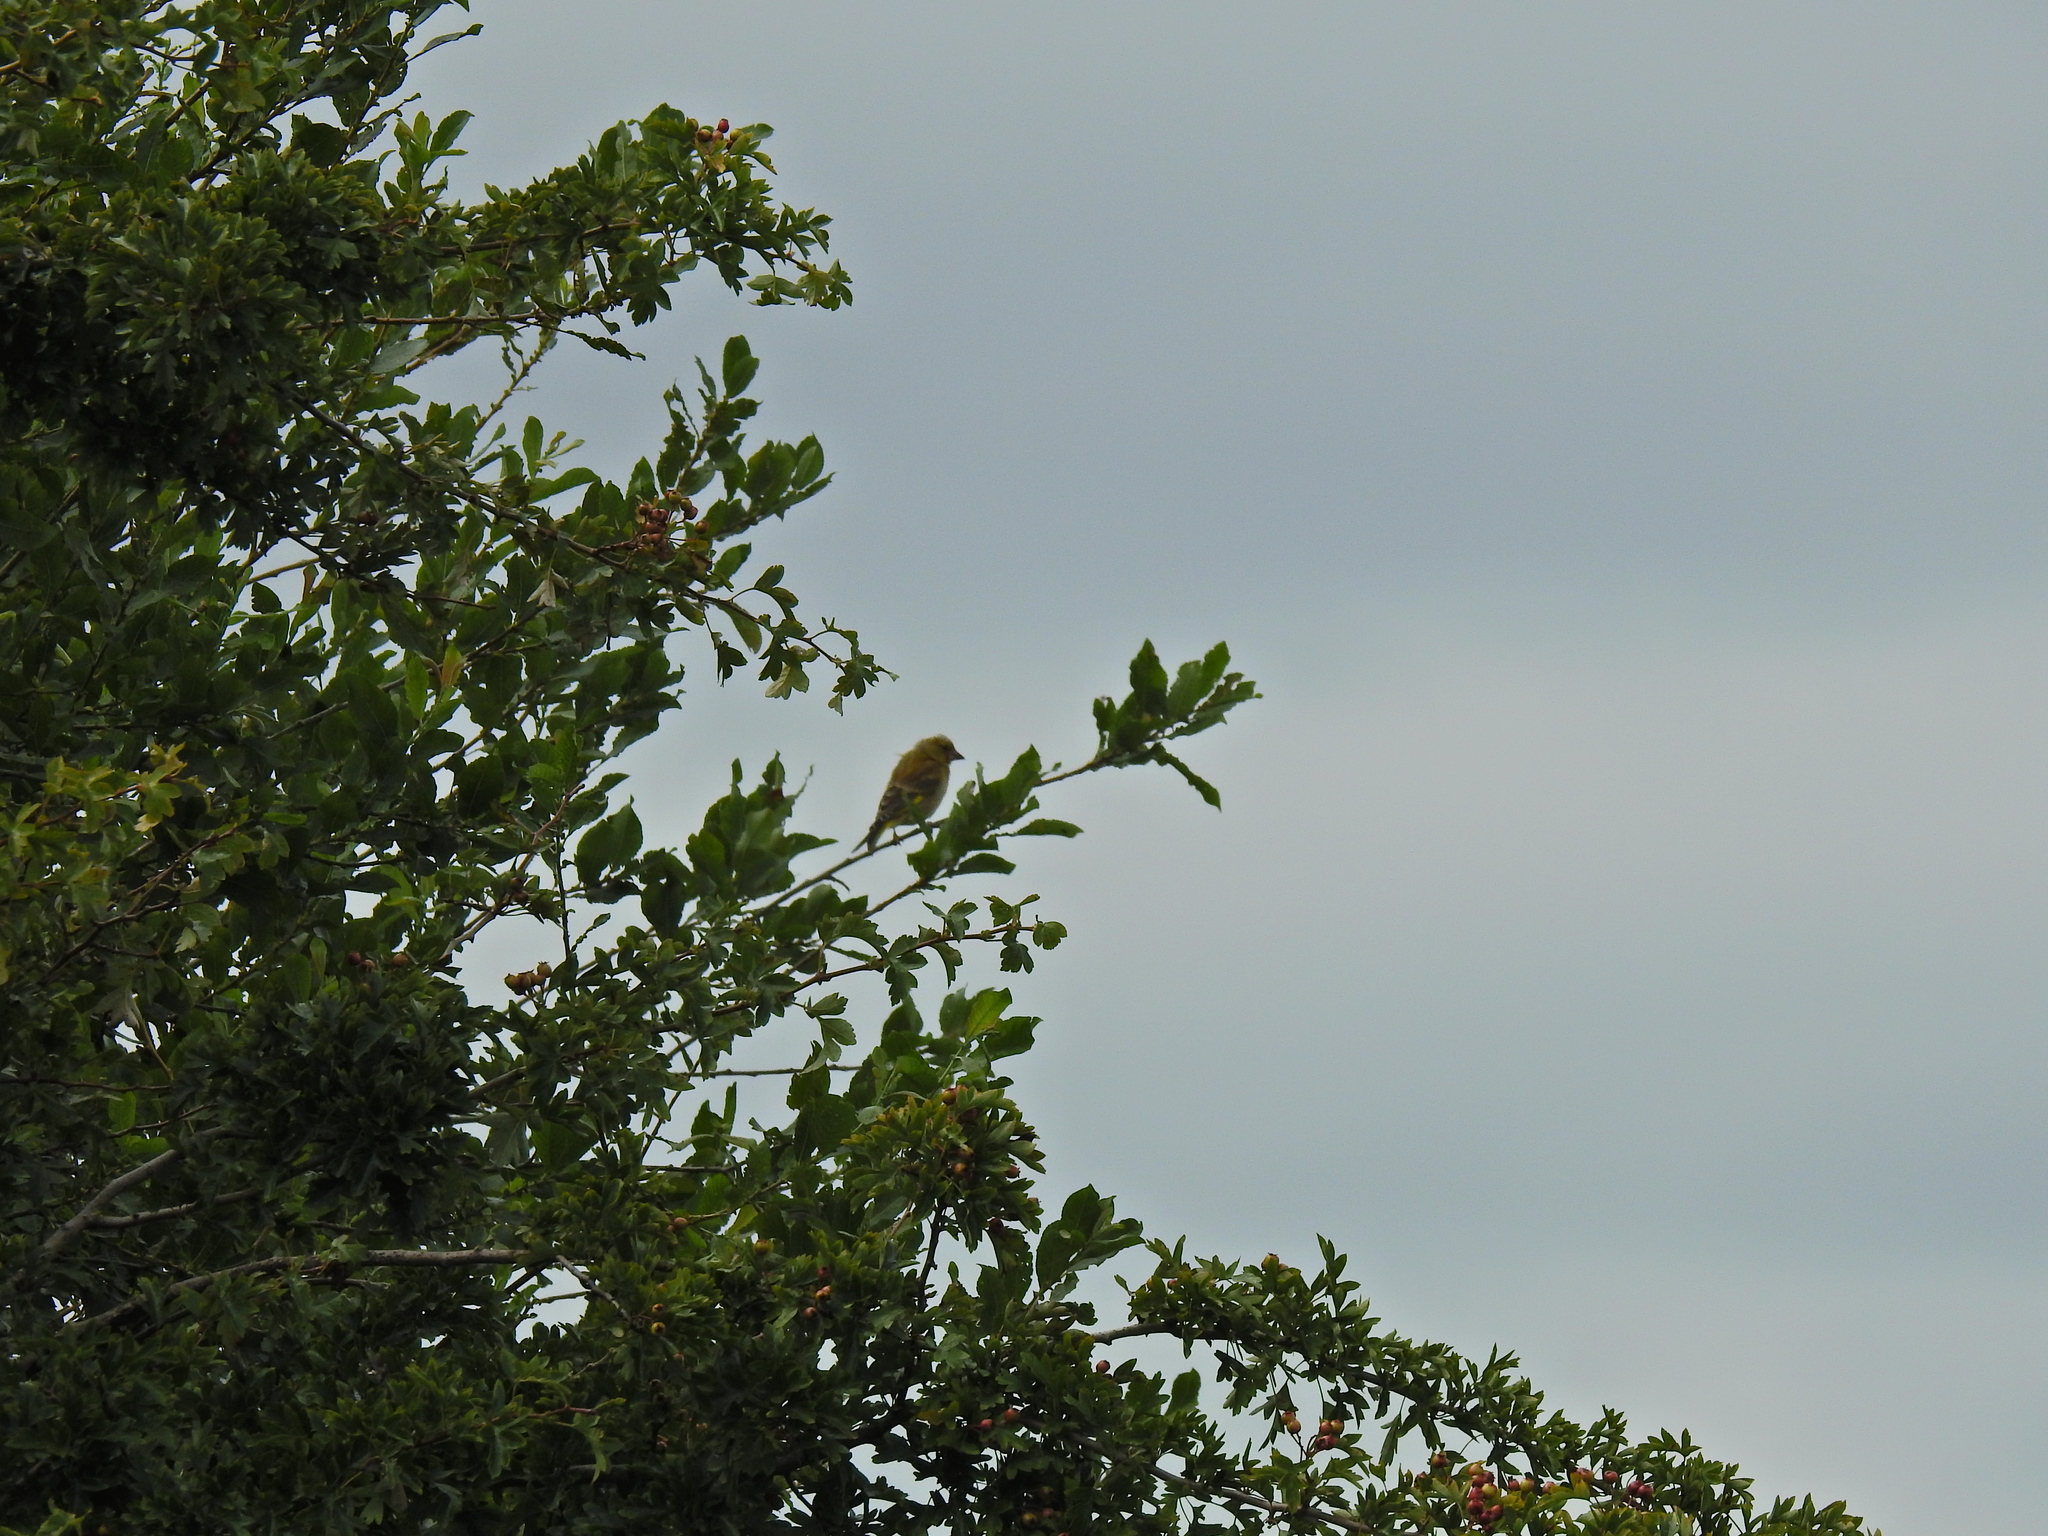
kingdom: Plantae
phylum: Tracheophyta
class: Liliopsida
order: Poales
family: Poaceae
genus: Chloris
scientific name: Chloris chloris
